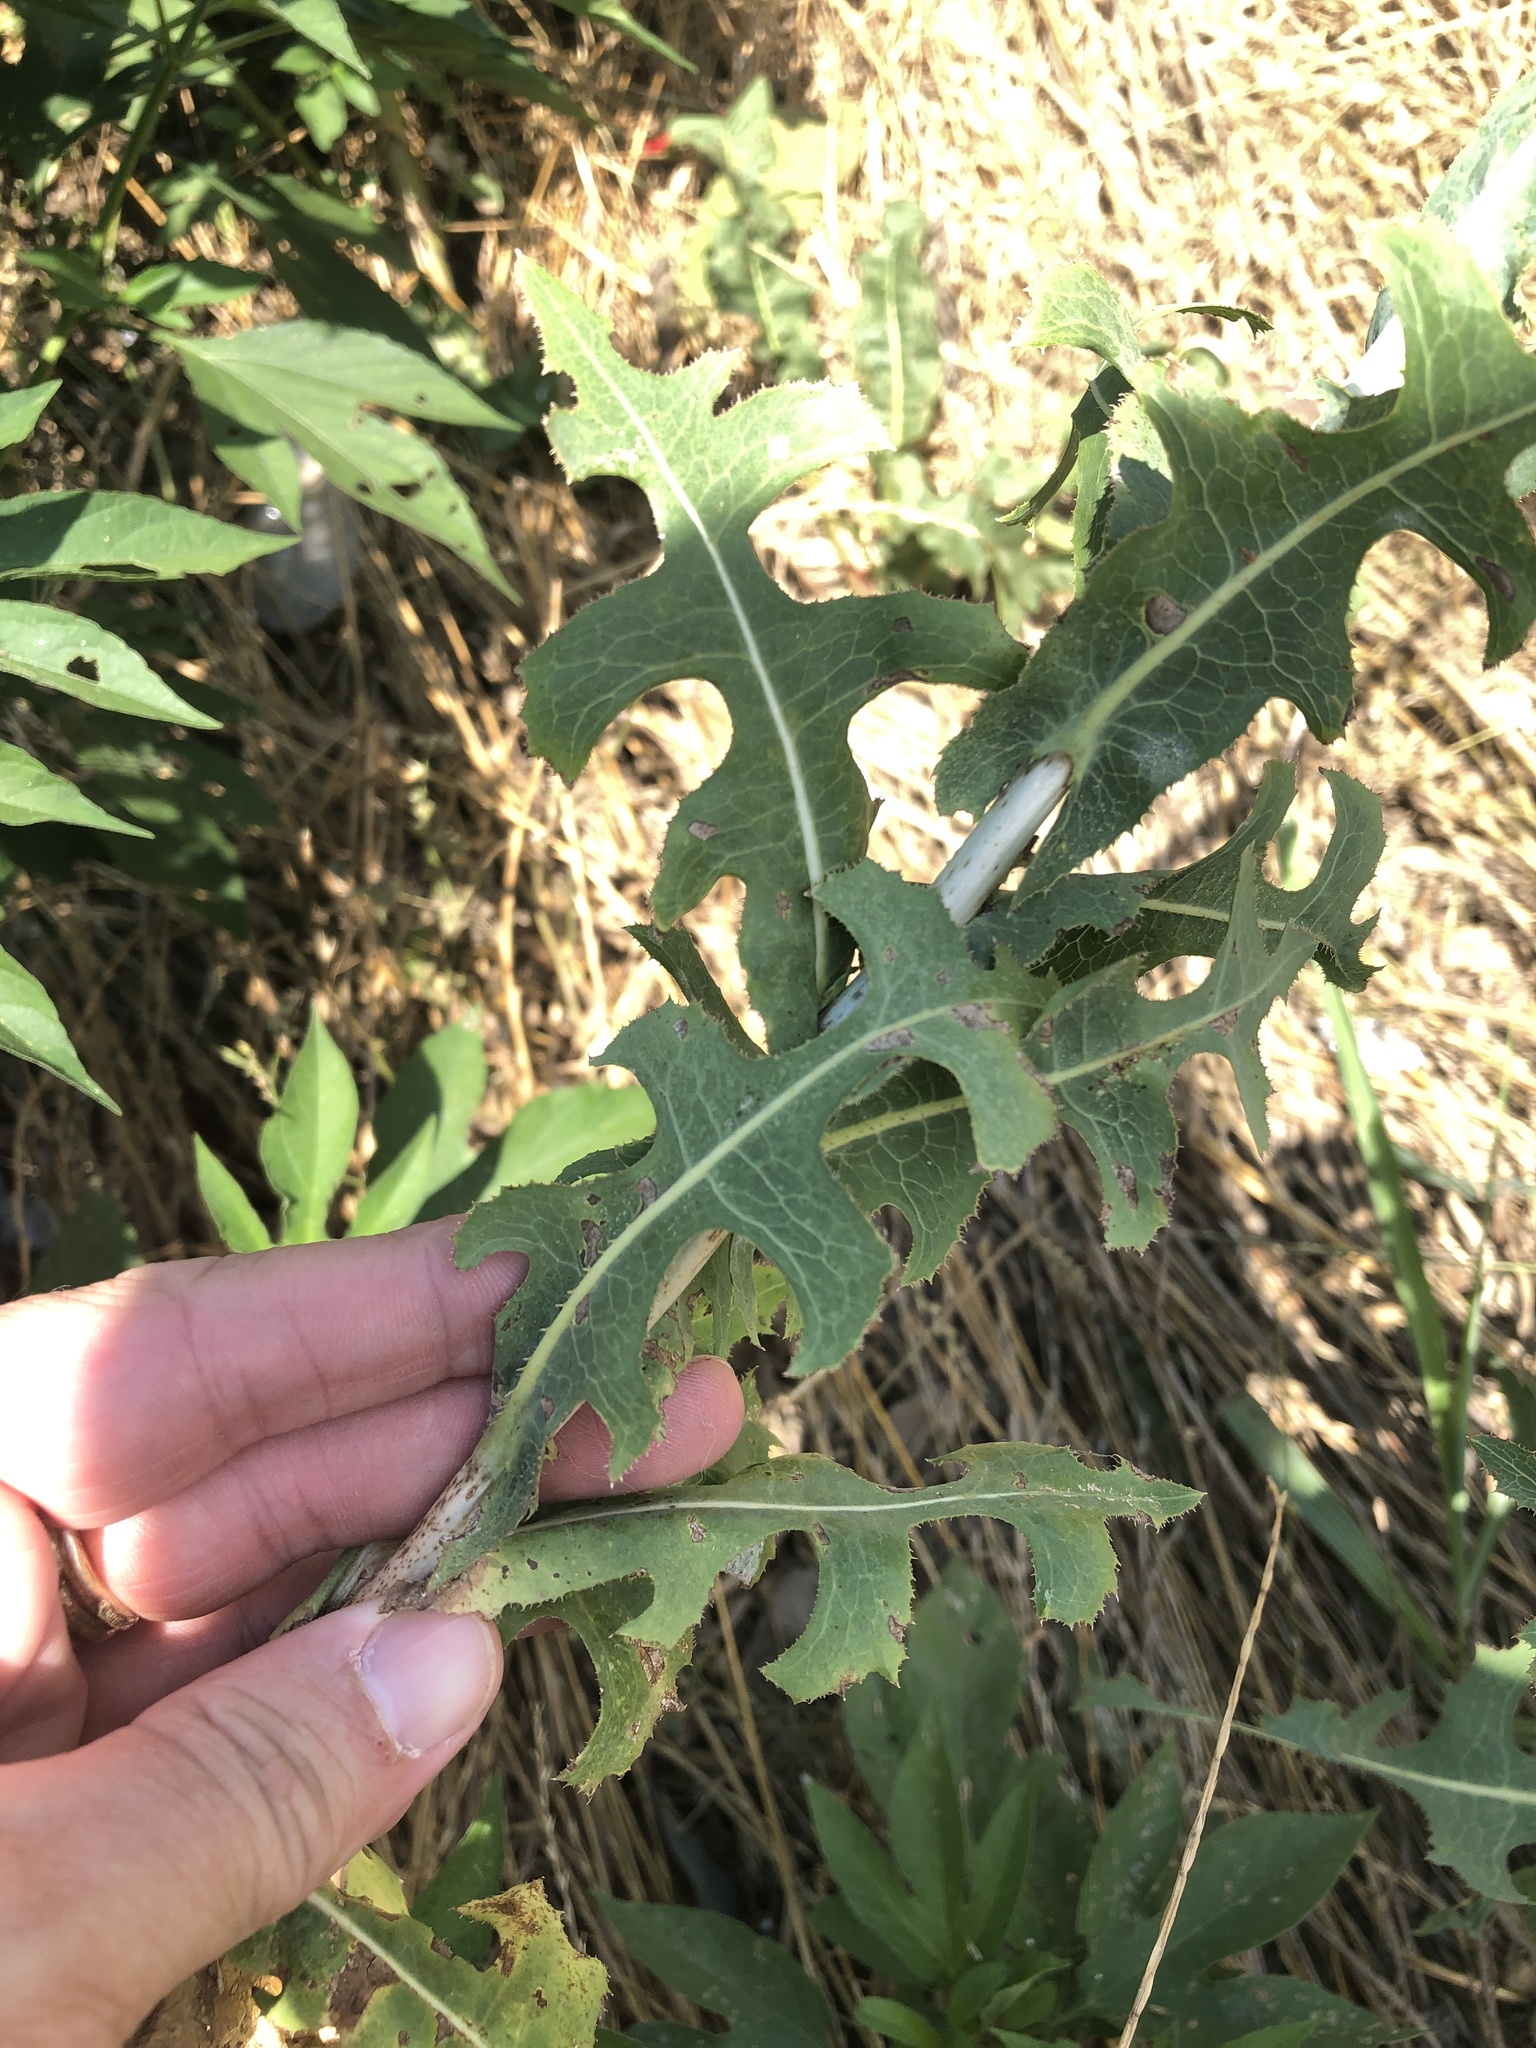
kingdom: Plantae
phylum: Tracheophyta
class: Magnoliopsida
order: Asterales
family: Asteraceae
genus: Lactuca
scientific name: Lactuca serriola
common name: Prickly lettuce
